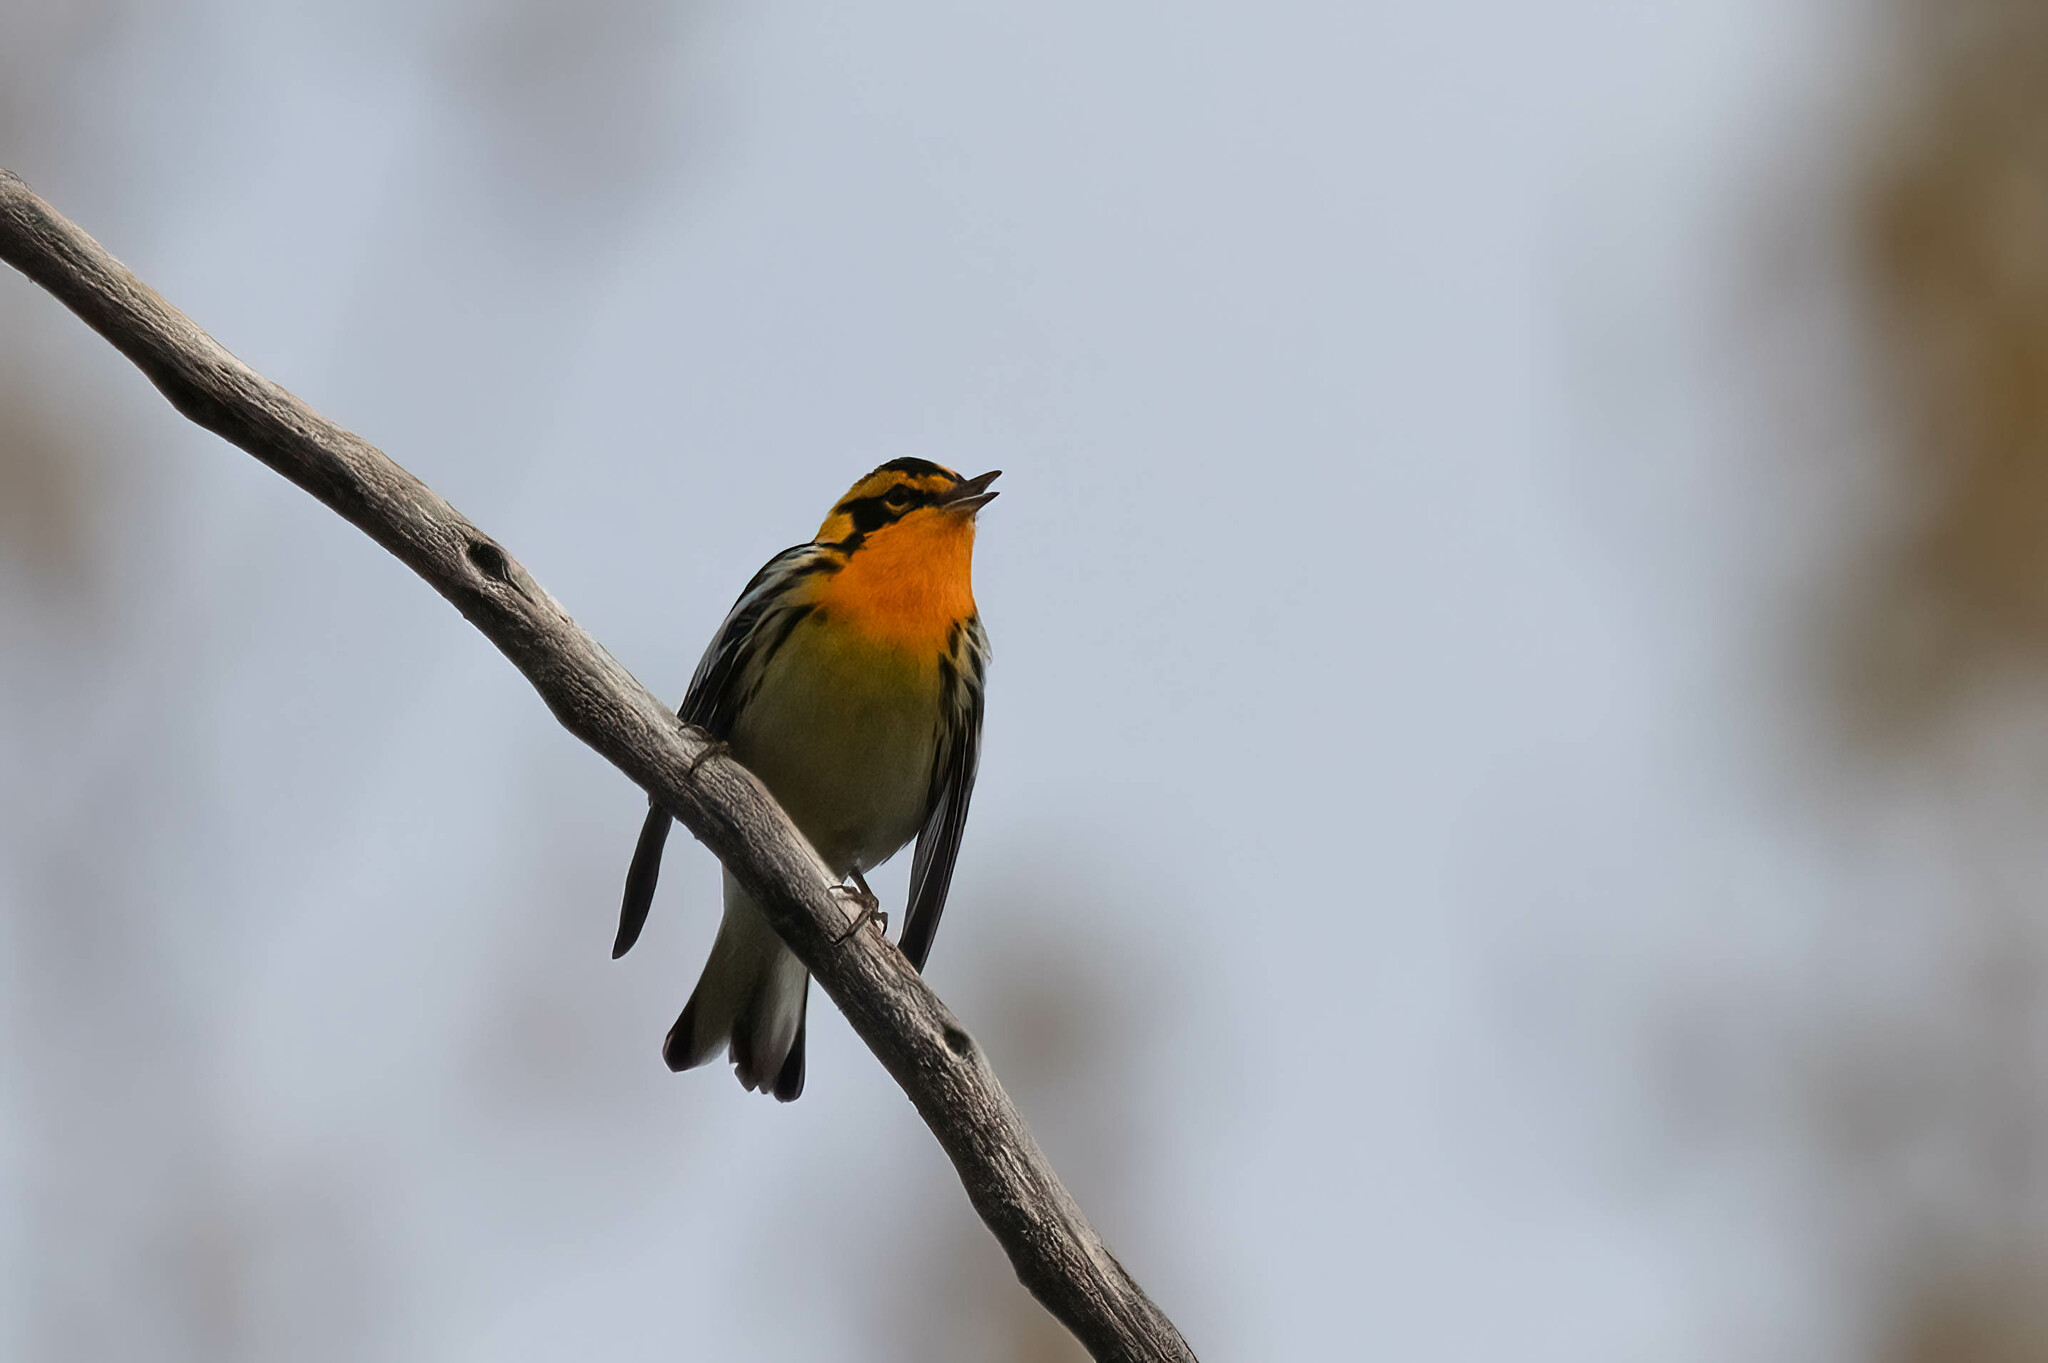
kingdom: Animalia
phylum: Chordata
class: Aves
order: Passeriformes
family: Parulidae
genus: Setophaga
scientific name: Setophaga fusca
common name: Blackburnian warbler
